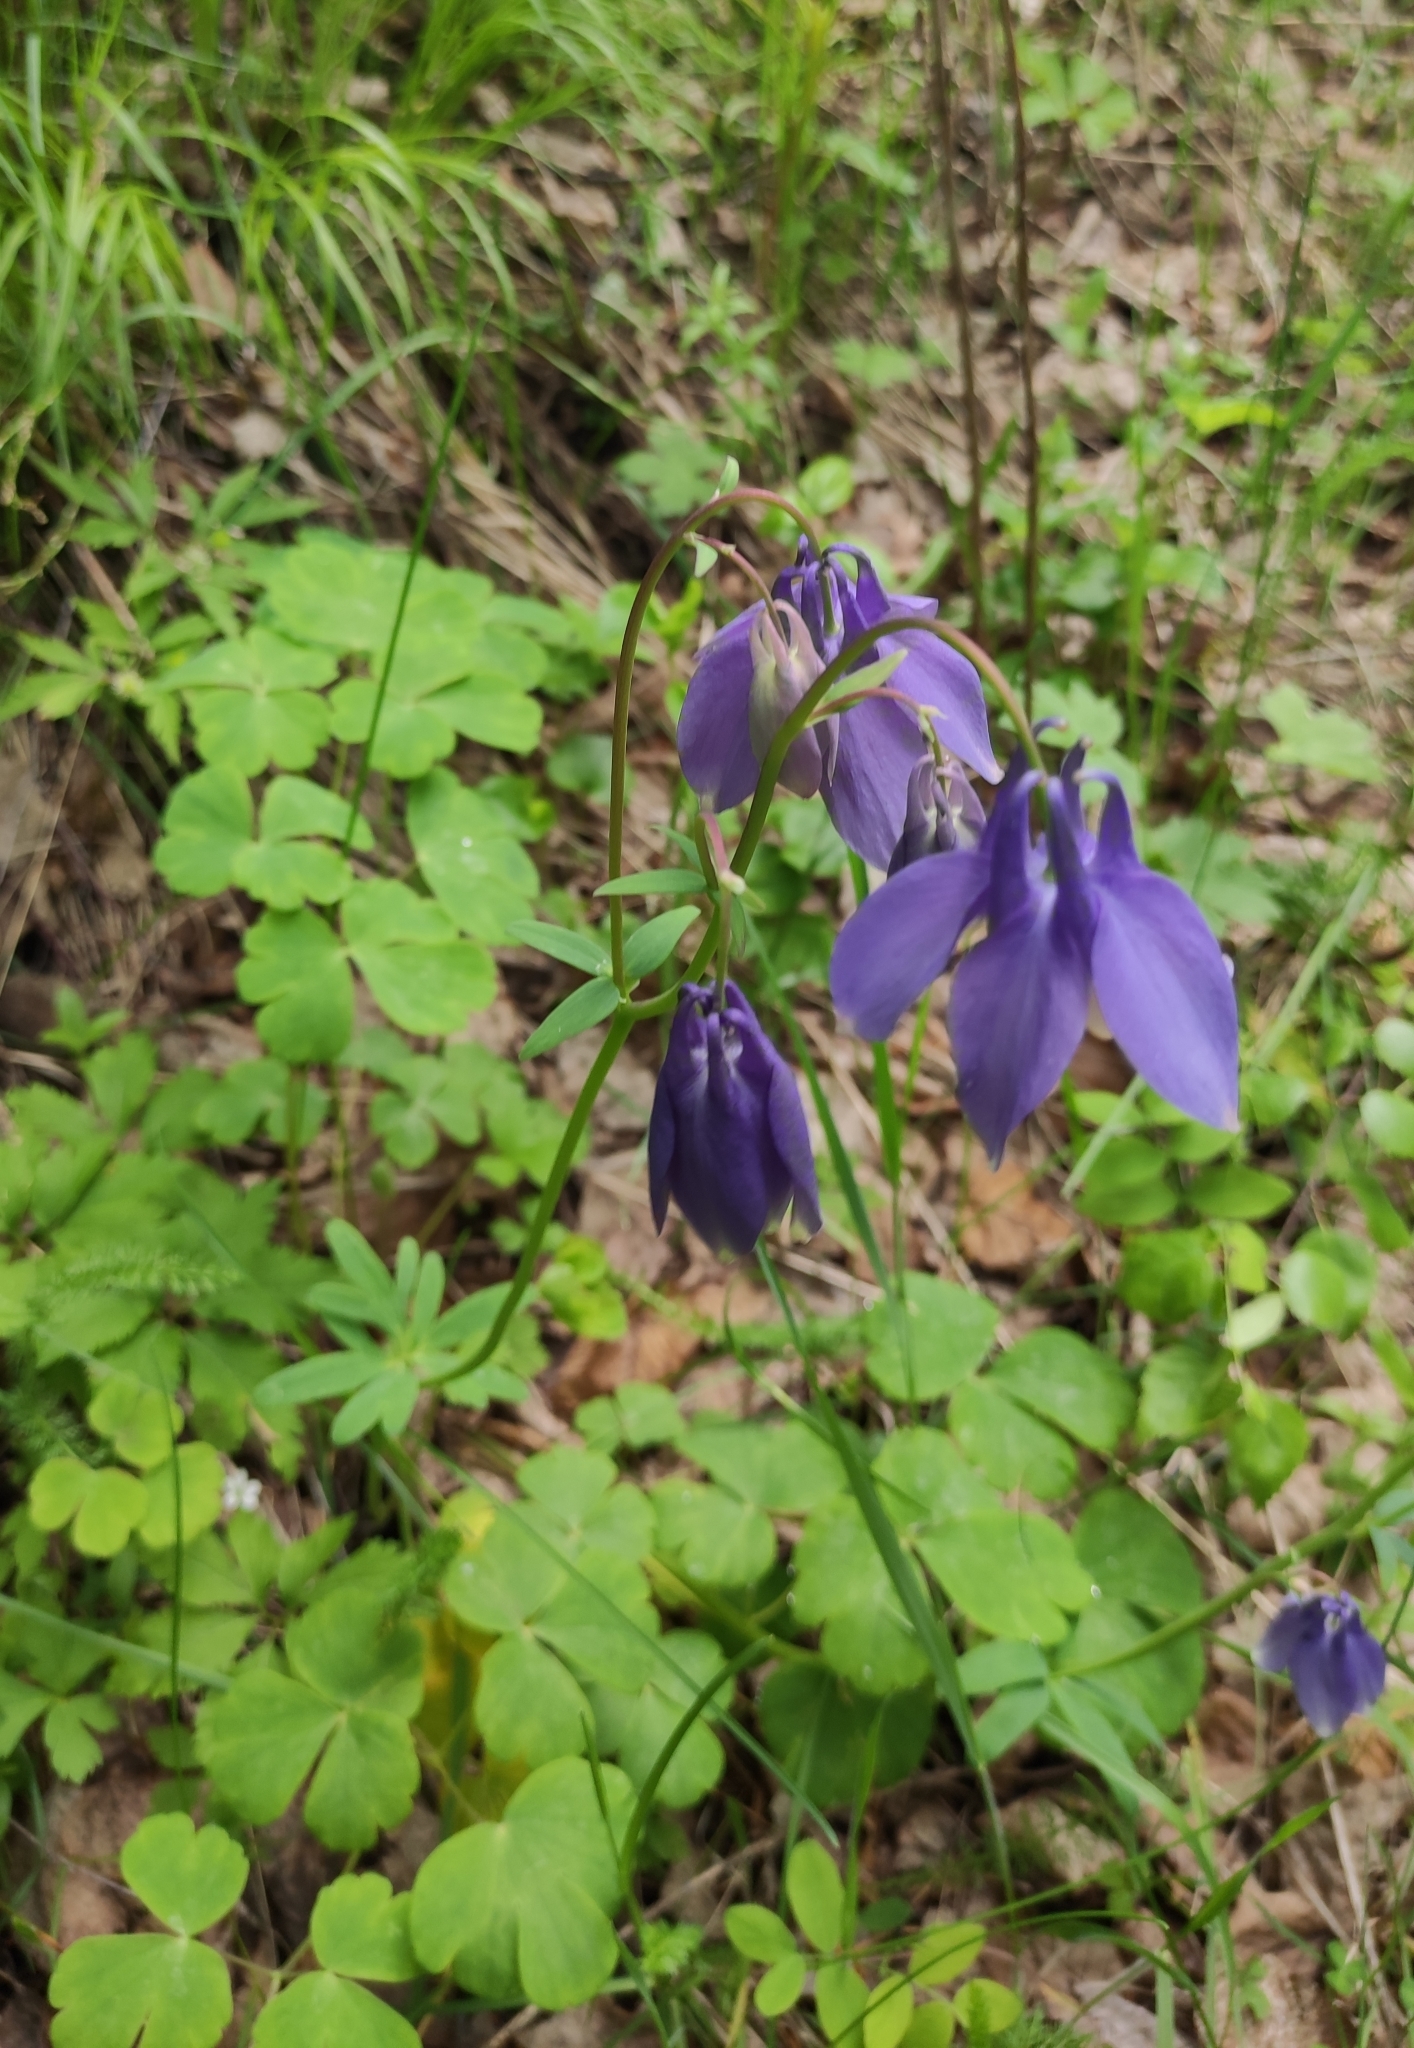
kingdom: Plantae
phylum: Tracheophyta
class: Magnoliopsida
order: Ranunculales
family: Ranunculaceae
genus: Aquilegia
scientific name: Aquilegia sibirica
